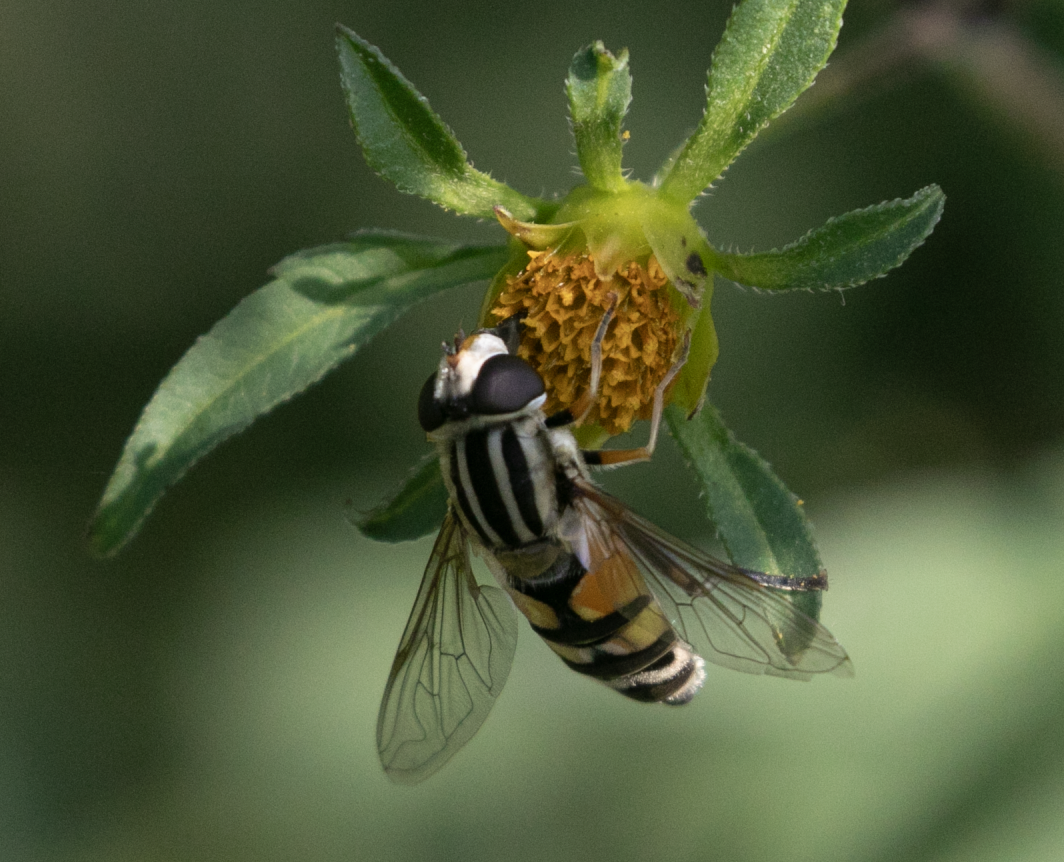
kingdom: Animalia
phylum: Arthropoda
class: Insecta
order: Diptera
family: Syrphidae
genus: Helophilus
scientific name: Helophilus trivittatus
